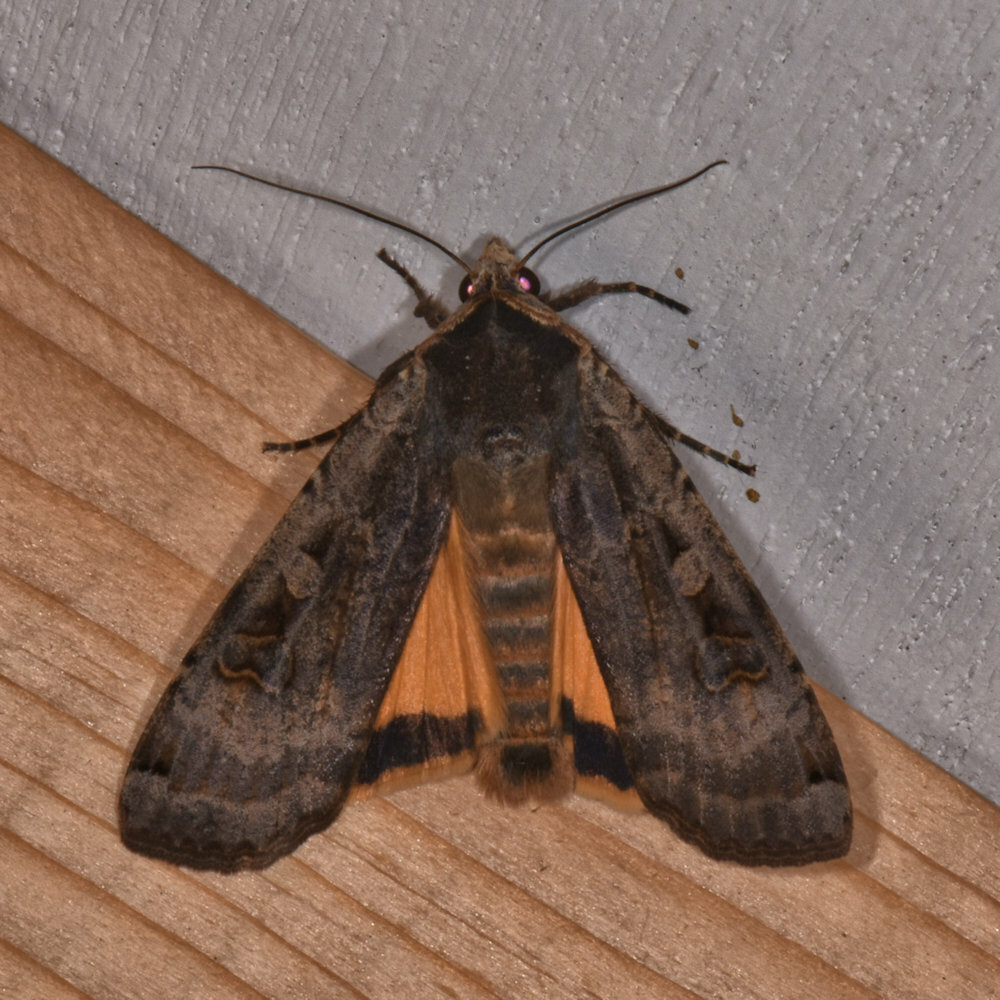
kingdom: Animalia
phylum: Arthropoda
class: Insecta
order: Lepidoptera
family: Noctuidae
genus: Noctua
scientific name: Noctua pronuba
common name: Large yellow underwing
